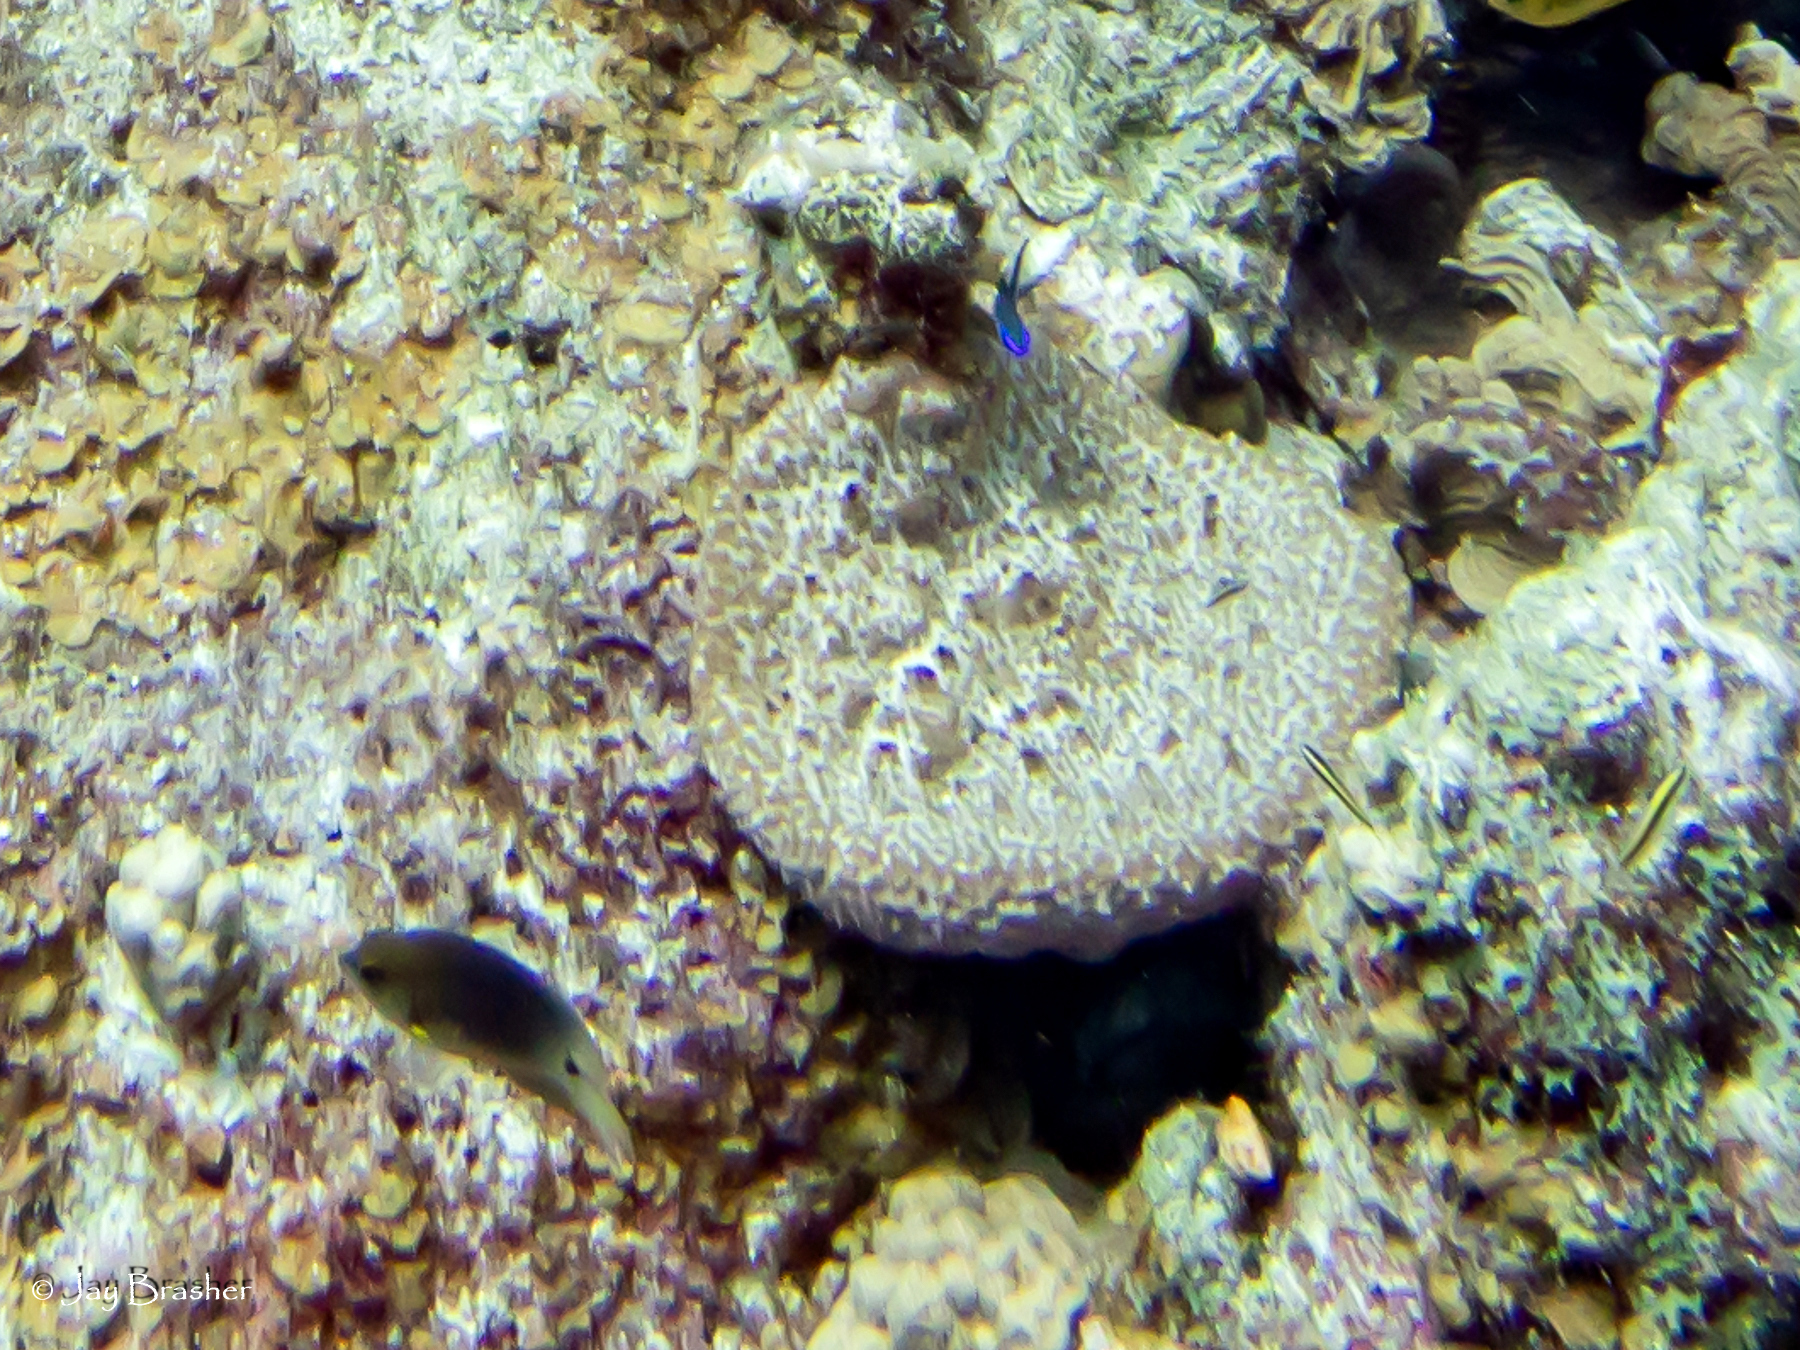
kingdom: Animalia
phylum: Porifera
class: Demospongiae
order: Dictyoceratida
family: Irciniidae
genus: Ircinia
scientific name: Ircinia campana
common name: Vase sponge
